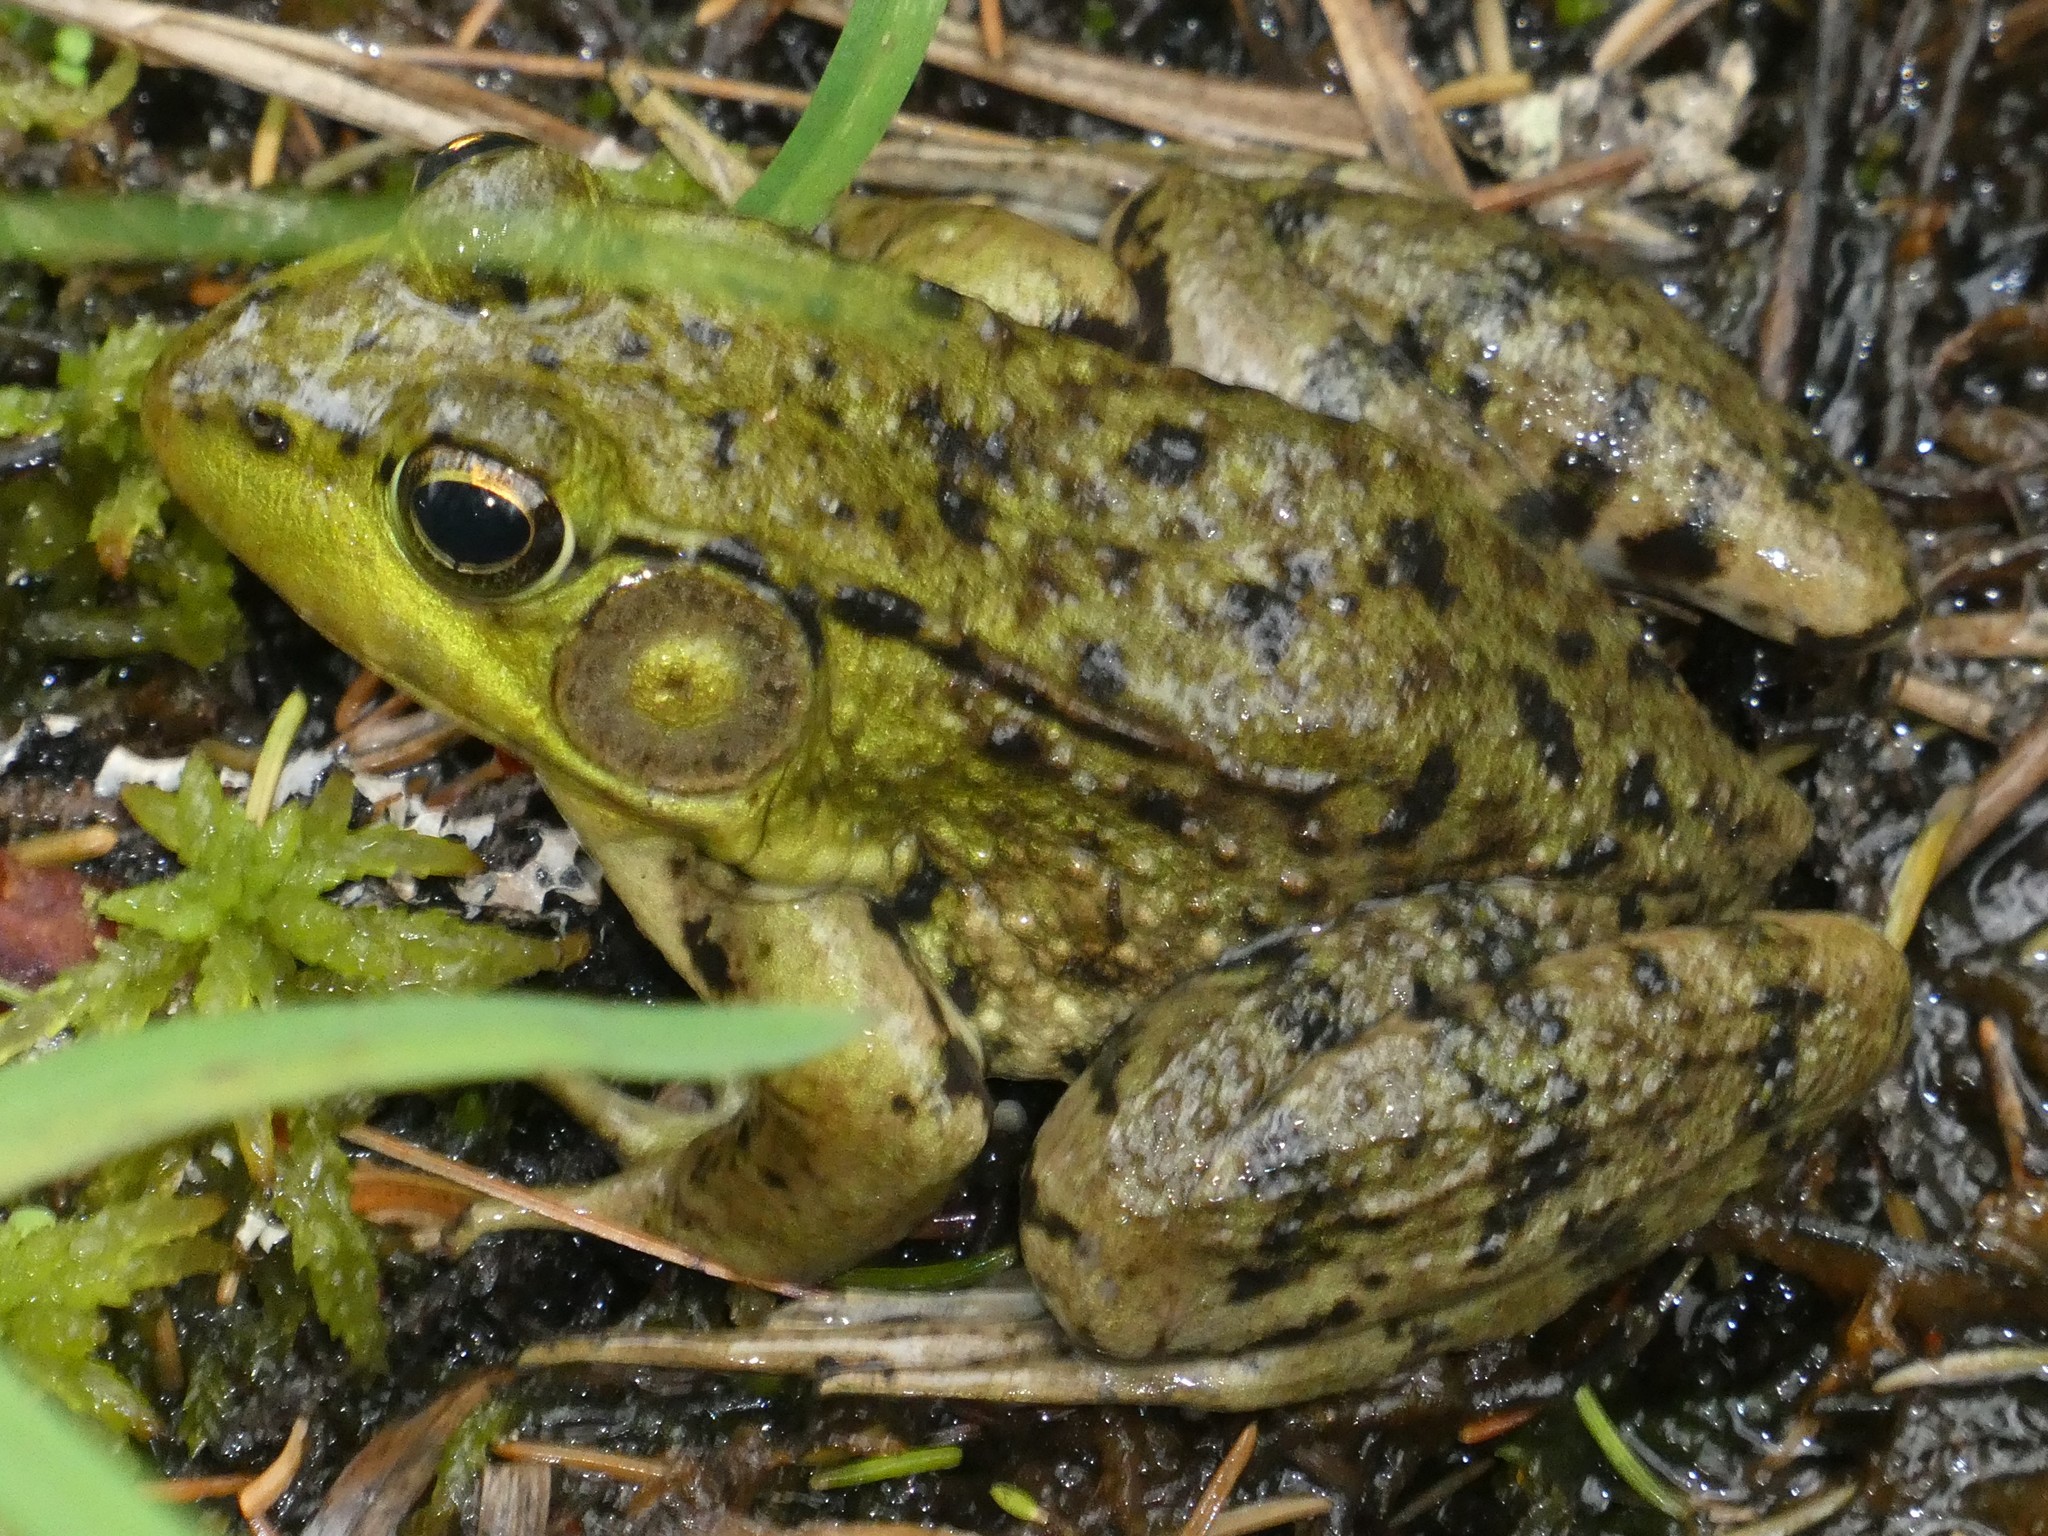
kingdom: Animalia
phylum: Chordata
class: Amphibia
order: Anura
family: Ranidae
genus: Lithobates
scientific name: Lithobates clamitans
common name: Green frog
